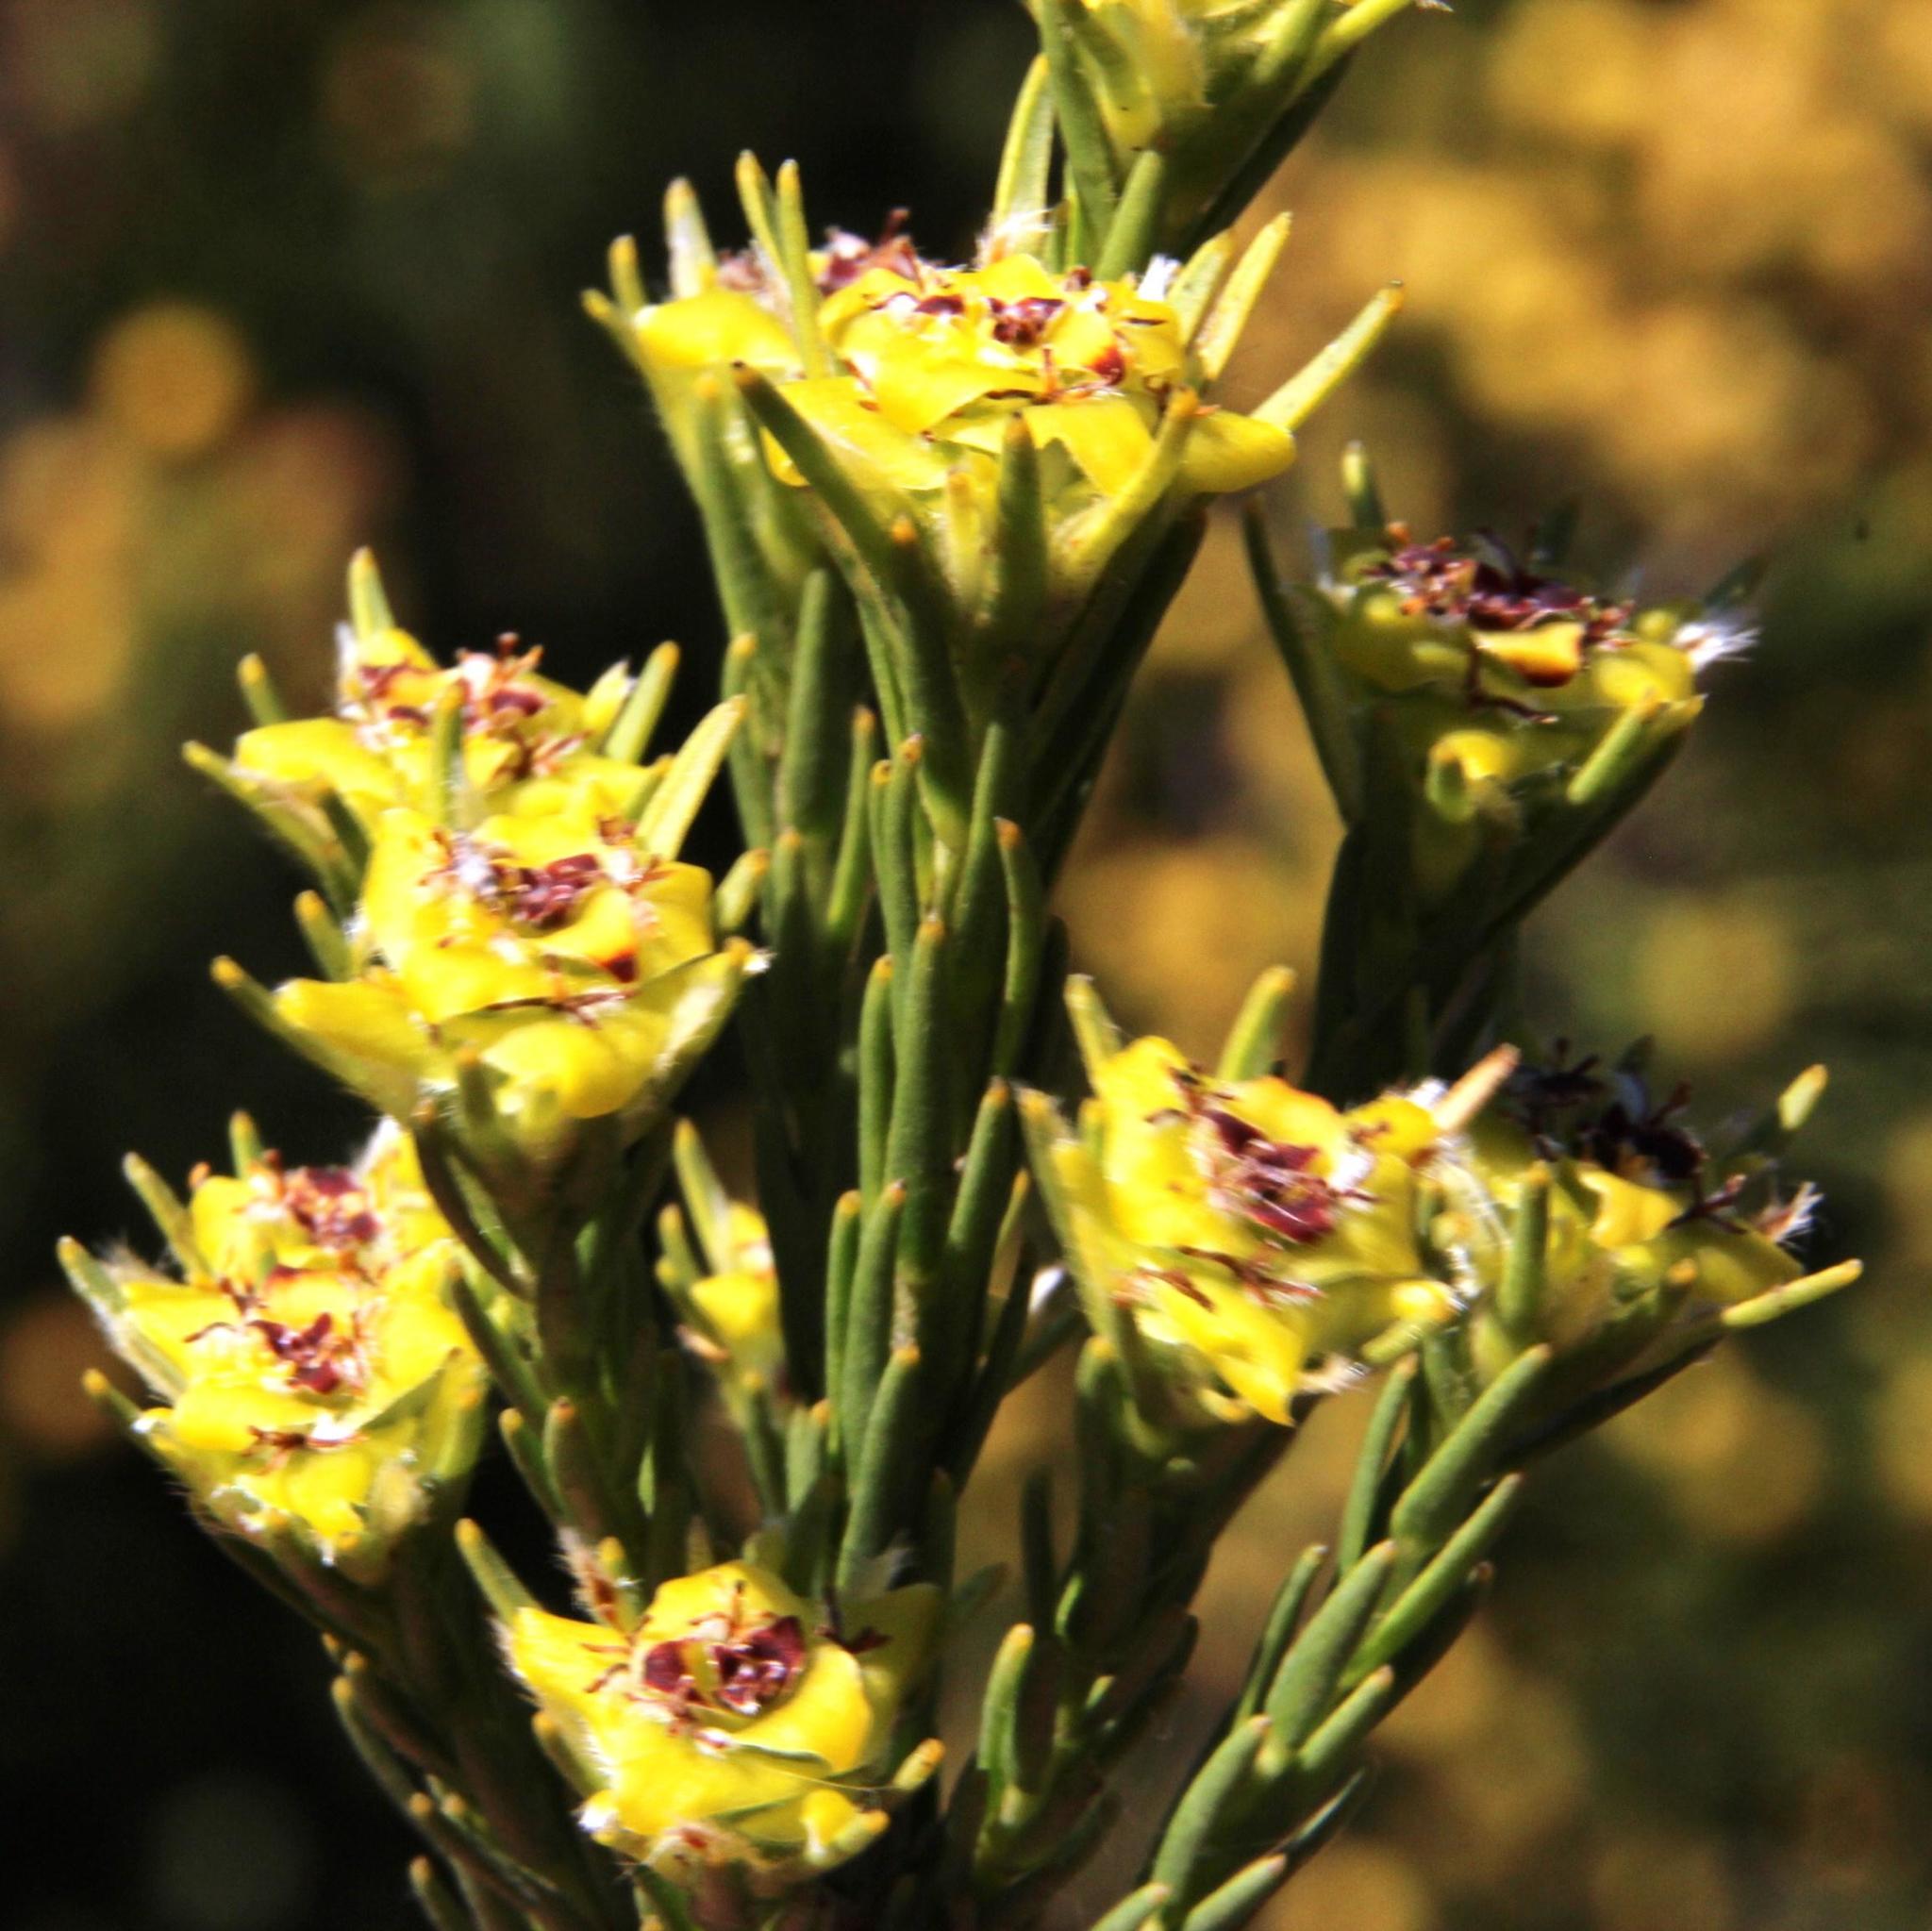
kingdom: Plantae
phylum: Tracheophyta
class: Magnoliopsida
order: Proteales
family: Proteaceae
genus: Leucadendron
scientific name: Leucadendron corymbosum
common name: Swartveld conebush
